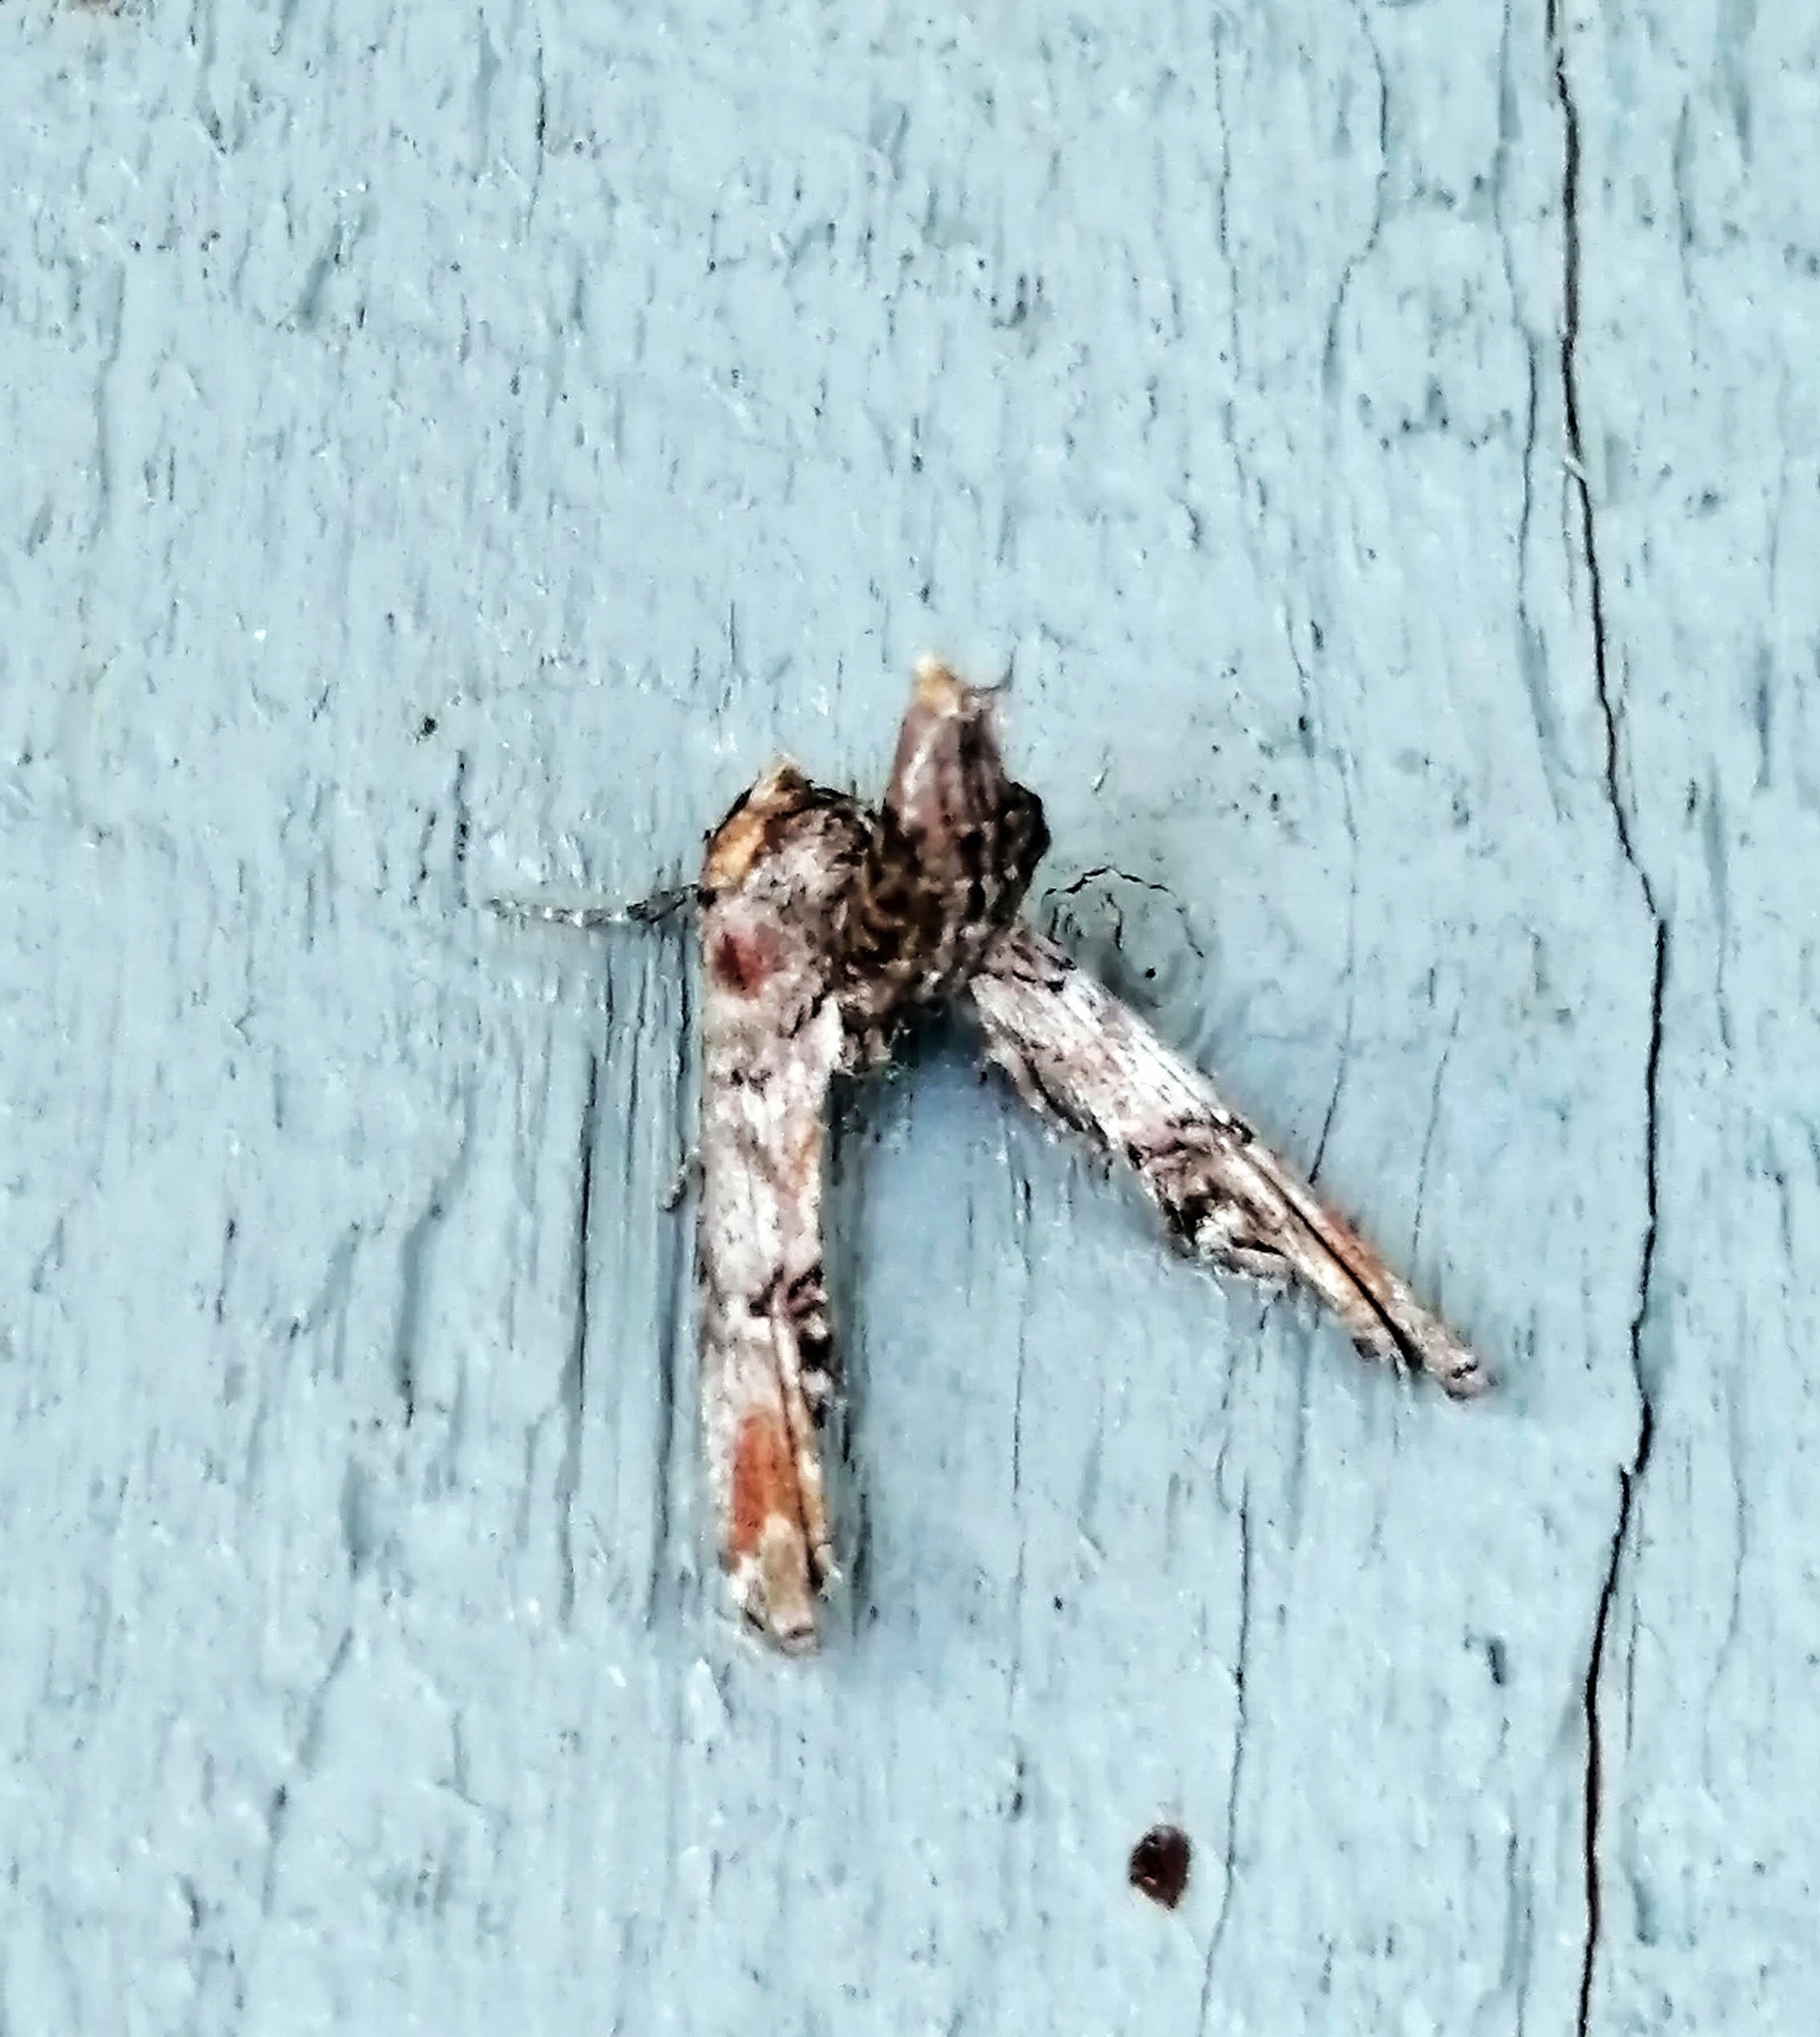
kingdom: Animalia
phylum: Arthropoda
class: Insecta
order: Lepidoptera
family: Euteliidae
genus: Marathyssa
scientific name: Marathyssa inficita
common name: Dark marathyssa moth
